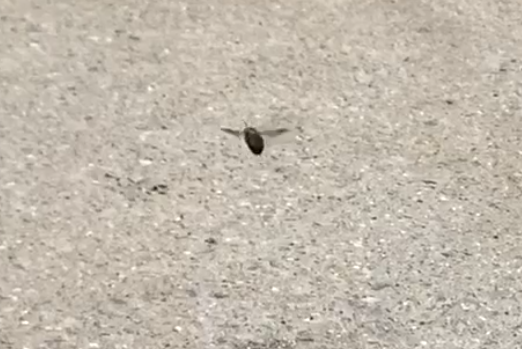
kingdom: Animalia
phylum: Arthropoda
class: Insecta
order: Hymenoptera
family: Apidae
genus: Xylocopa
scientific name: Xylocopa virginica
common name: Carpenter bee
